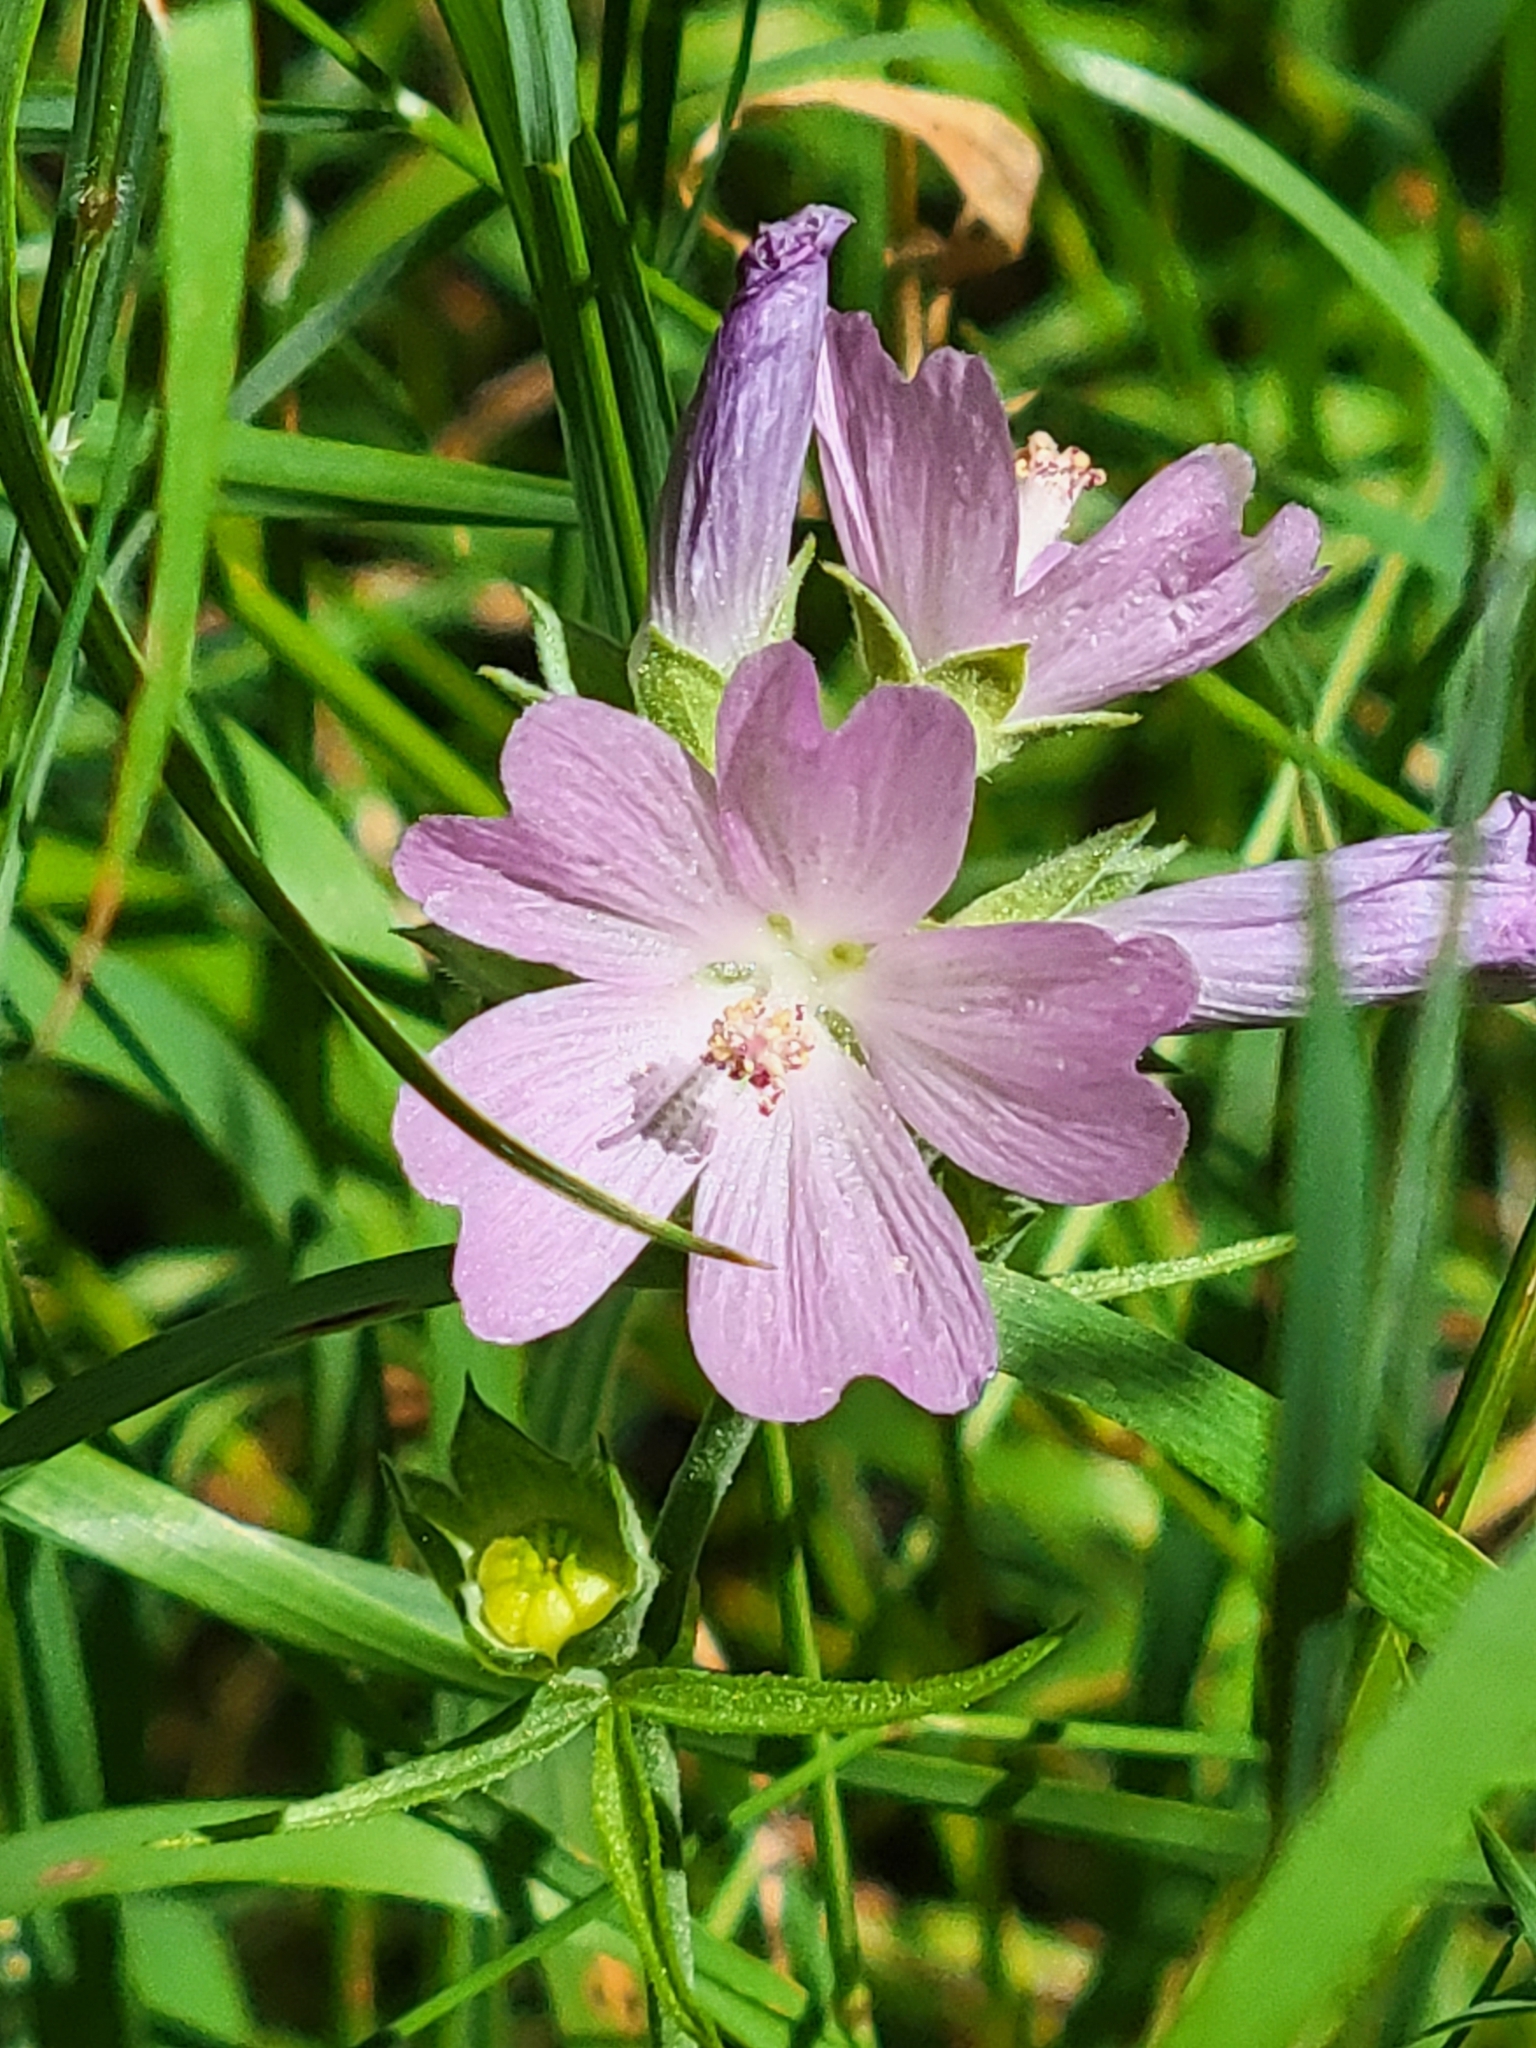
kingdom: Plantae
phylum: Tracheophyta
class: Magnoliopsida
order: Malvales
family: Malvaceae
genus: Sidalcea
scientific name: Sidalcea oregana
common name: Oregon checker-mallow
